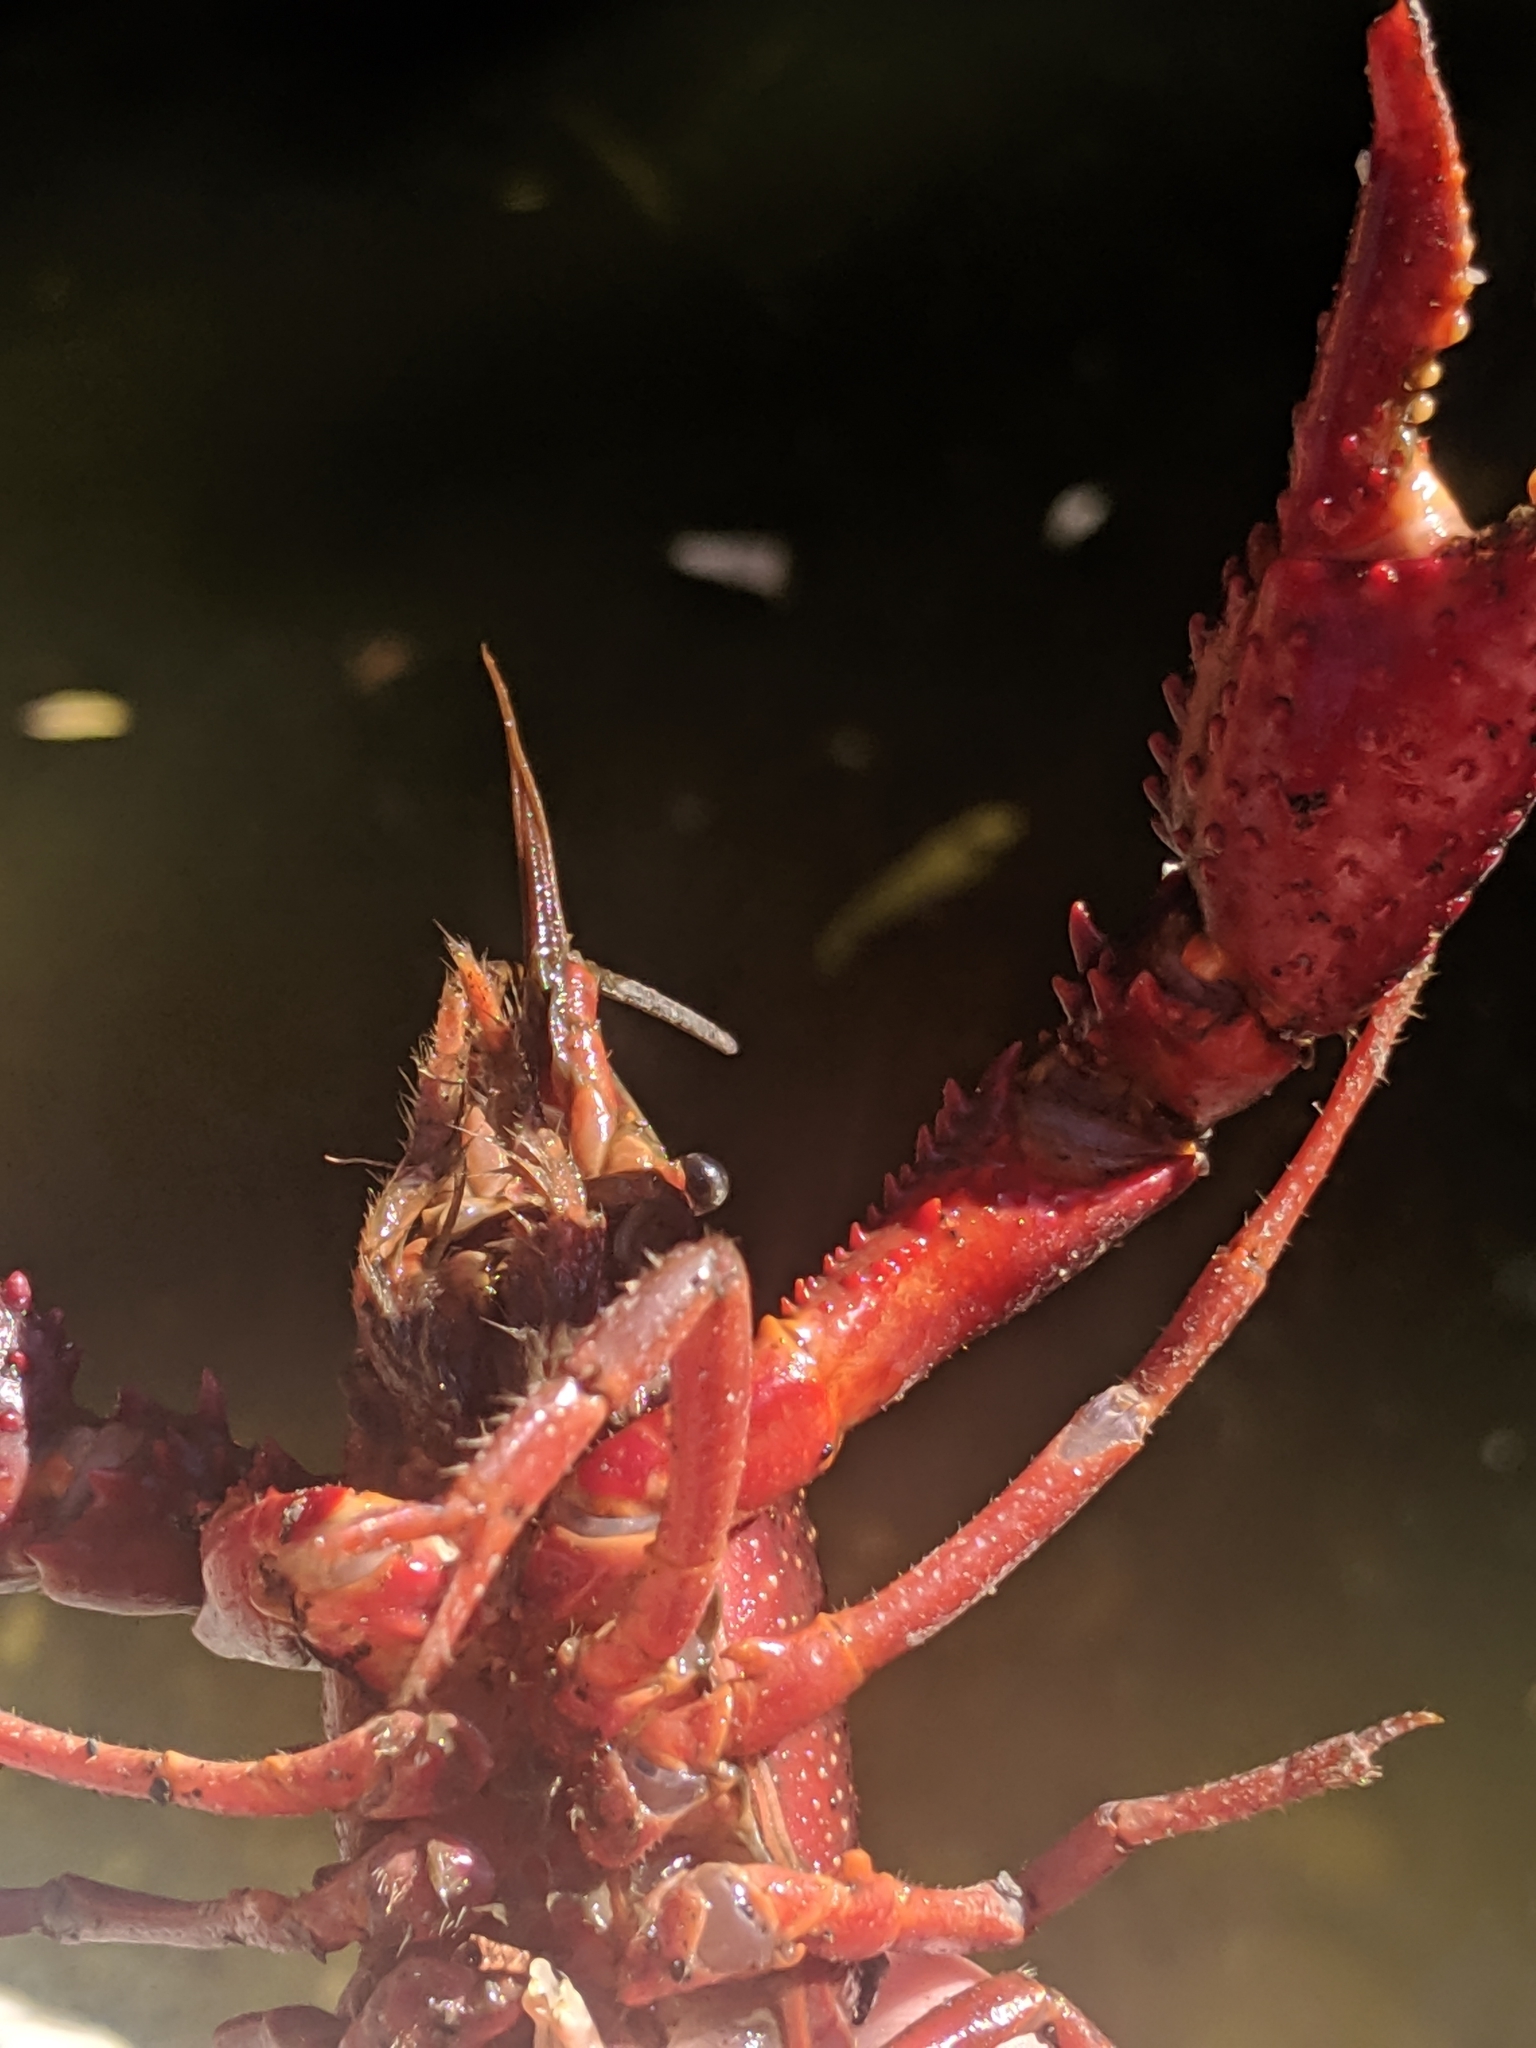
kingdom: Animalia
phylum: Arthropoda
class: Malacostraca
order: Decapoda
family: Cambaridae
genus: Procambarus
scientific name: Procambarus clarkii
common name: Red swamp crayfish
